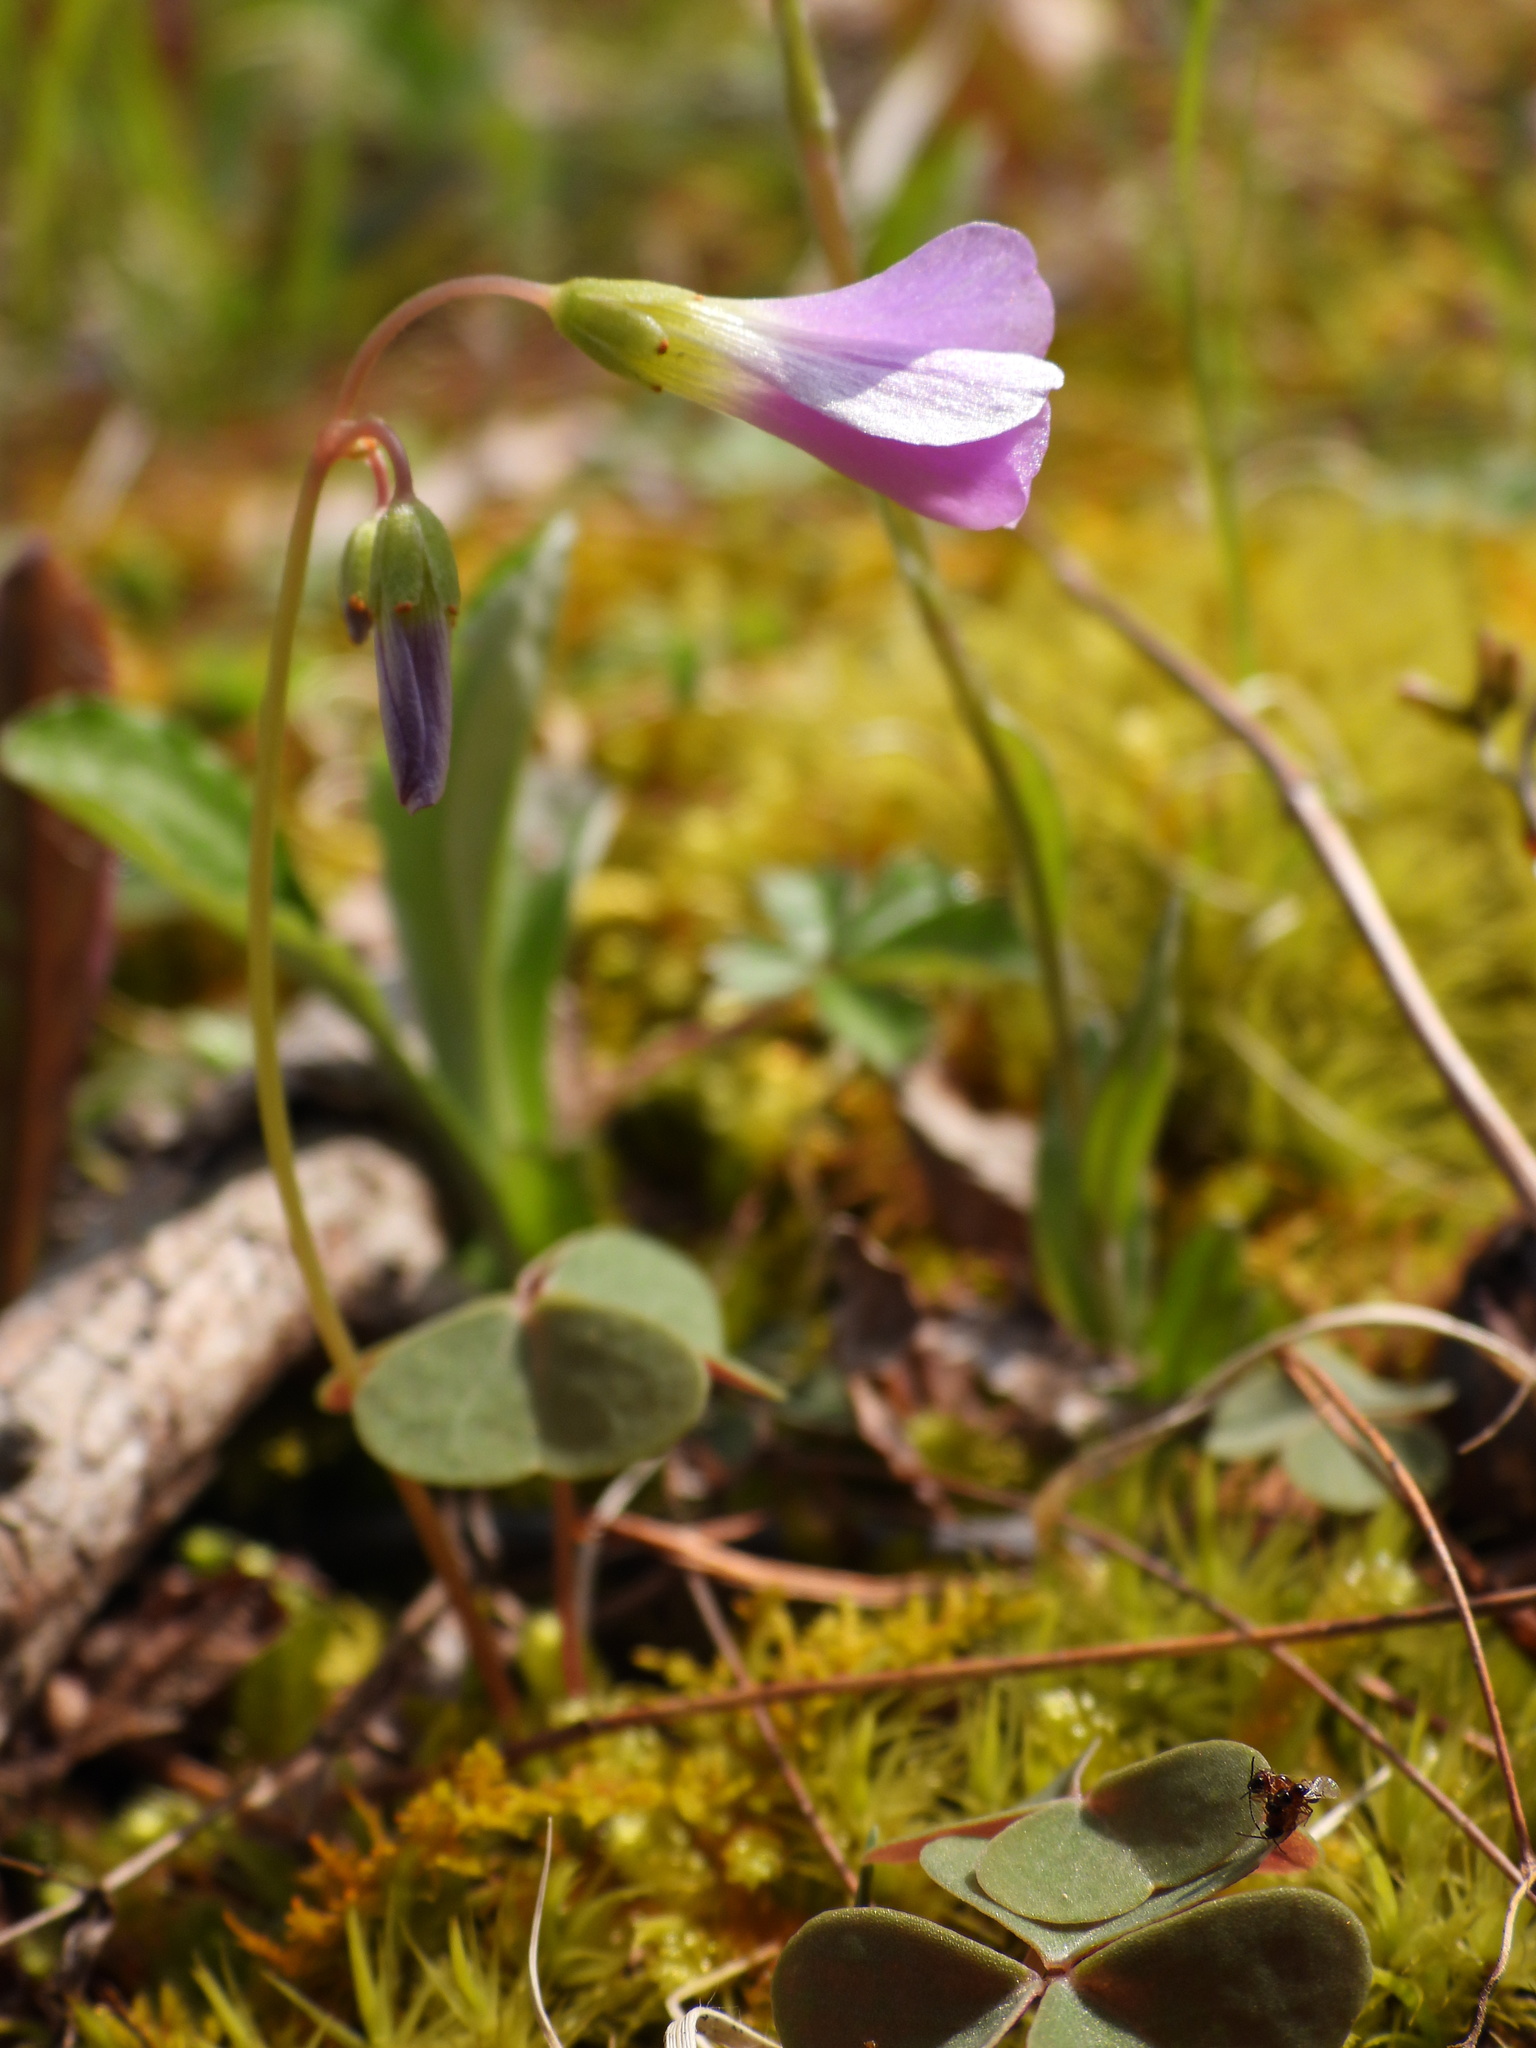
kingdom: Plantae
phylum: Tracheophyta
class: Magnoliopsida
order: Oxalidales
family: Oxalidaceae
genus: Oxalis
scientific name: Oxalis violacea
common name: Violet wood-sorrel
